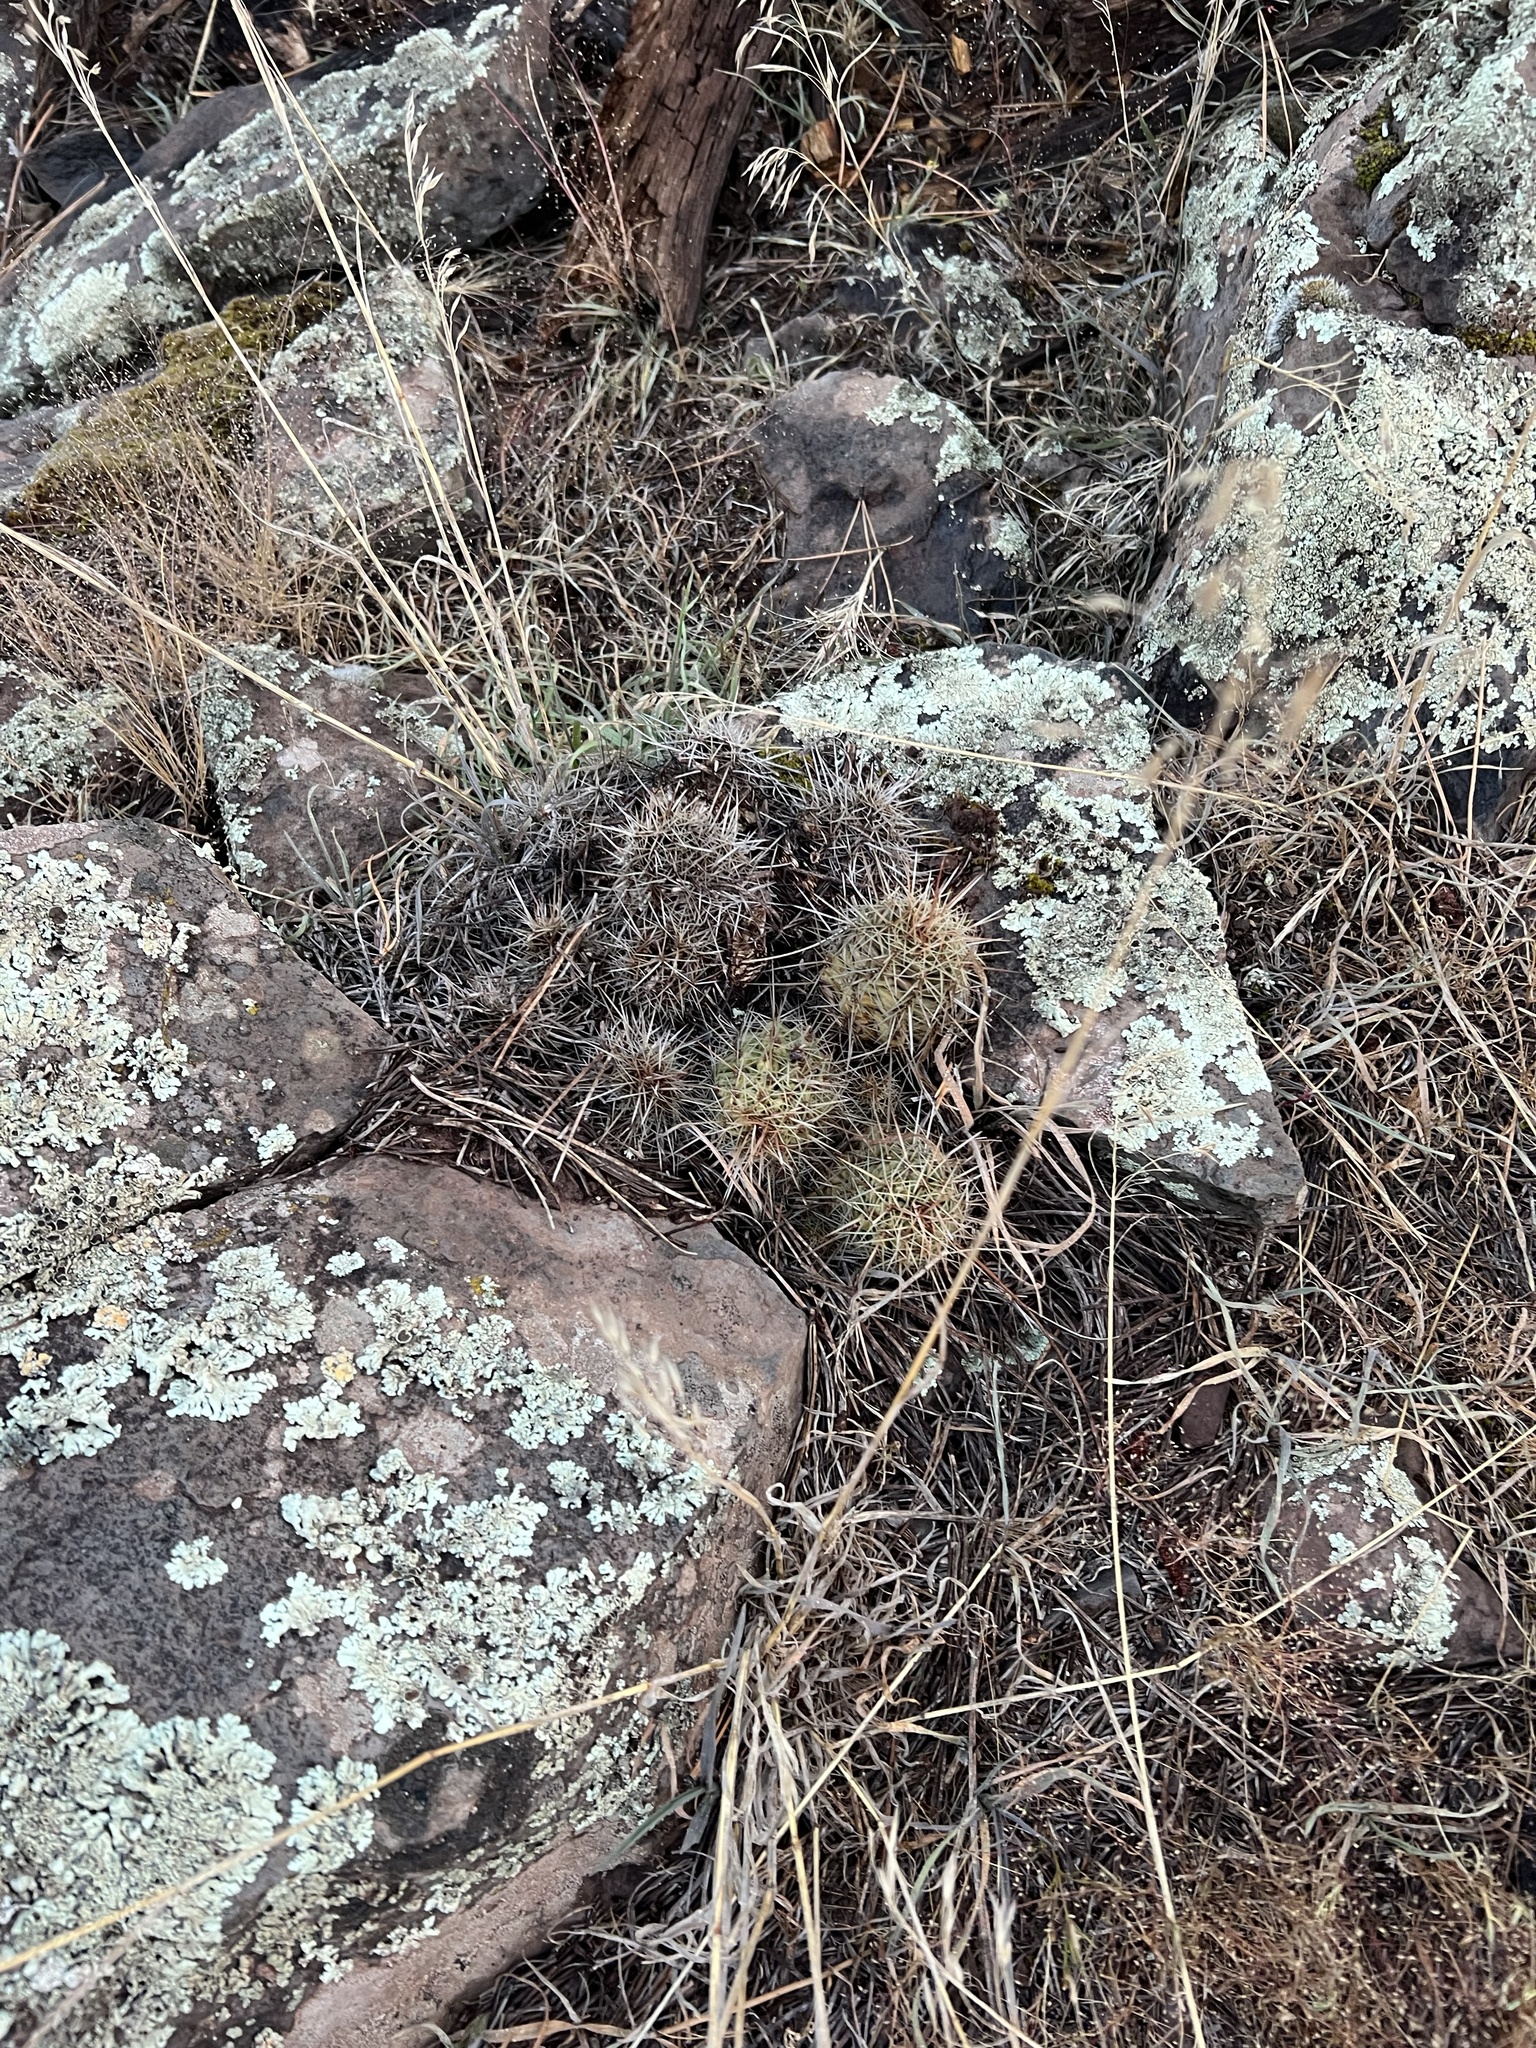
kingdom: Plantae
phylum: Tracheophyta
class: Magnoliopsida
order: Caryophyllales
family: Cactaceae
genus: Echinocereus
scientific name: Echinocereus bakeri
